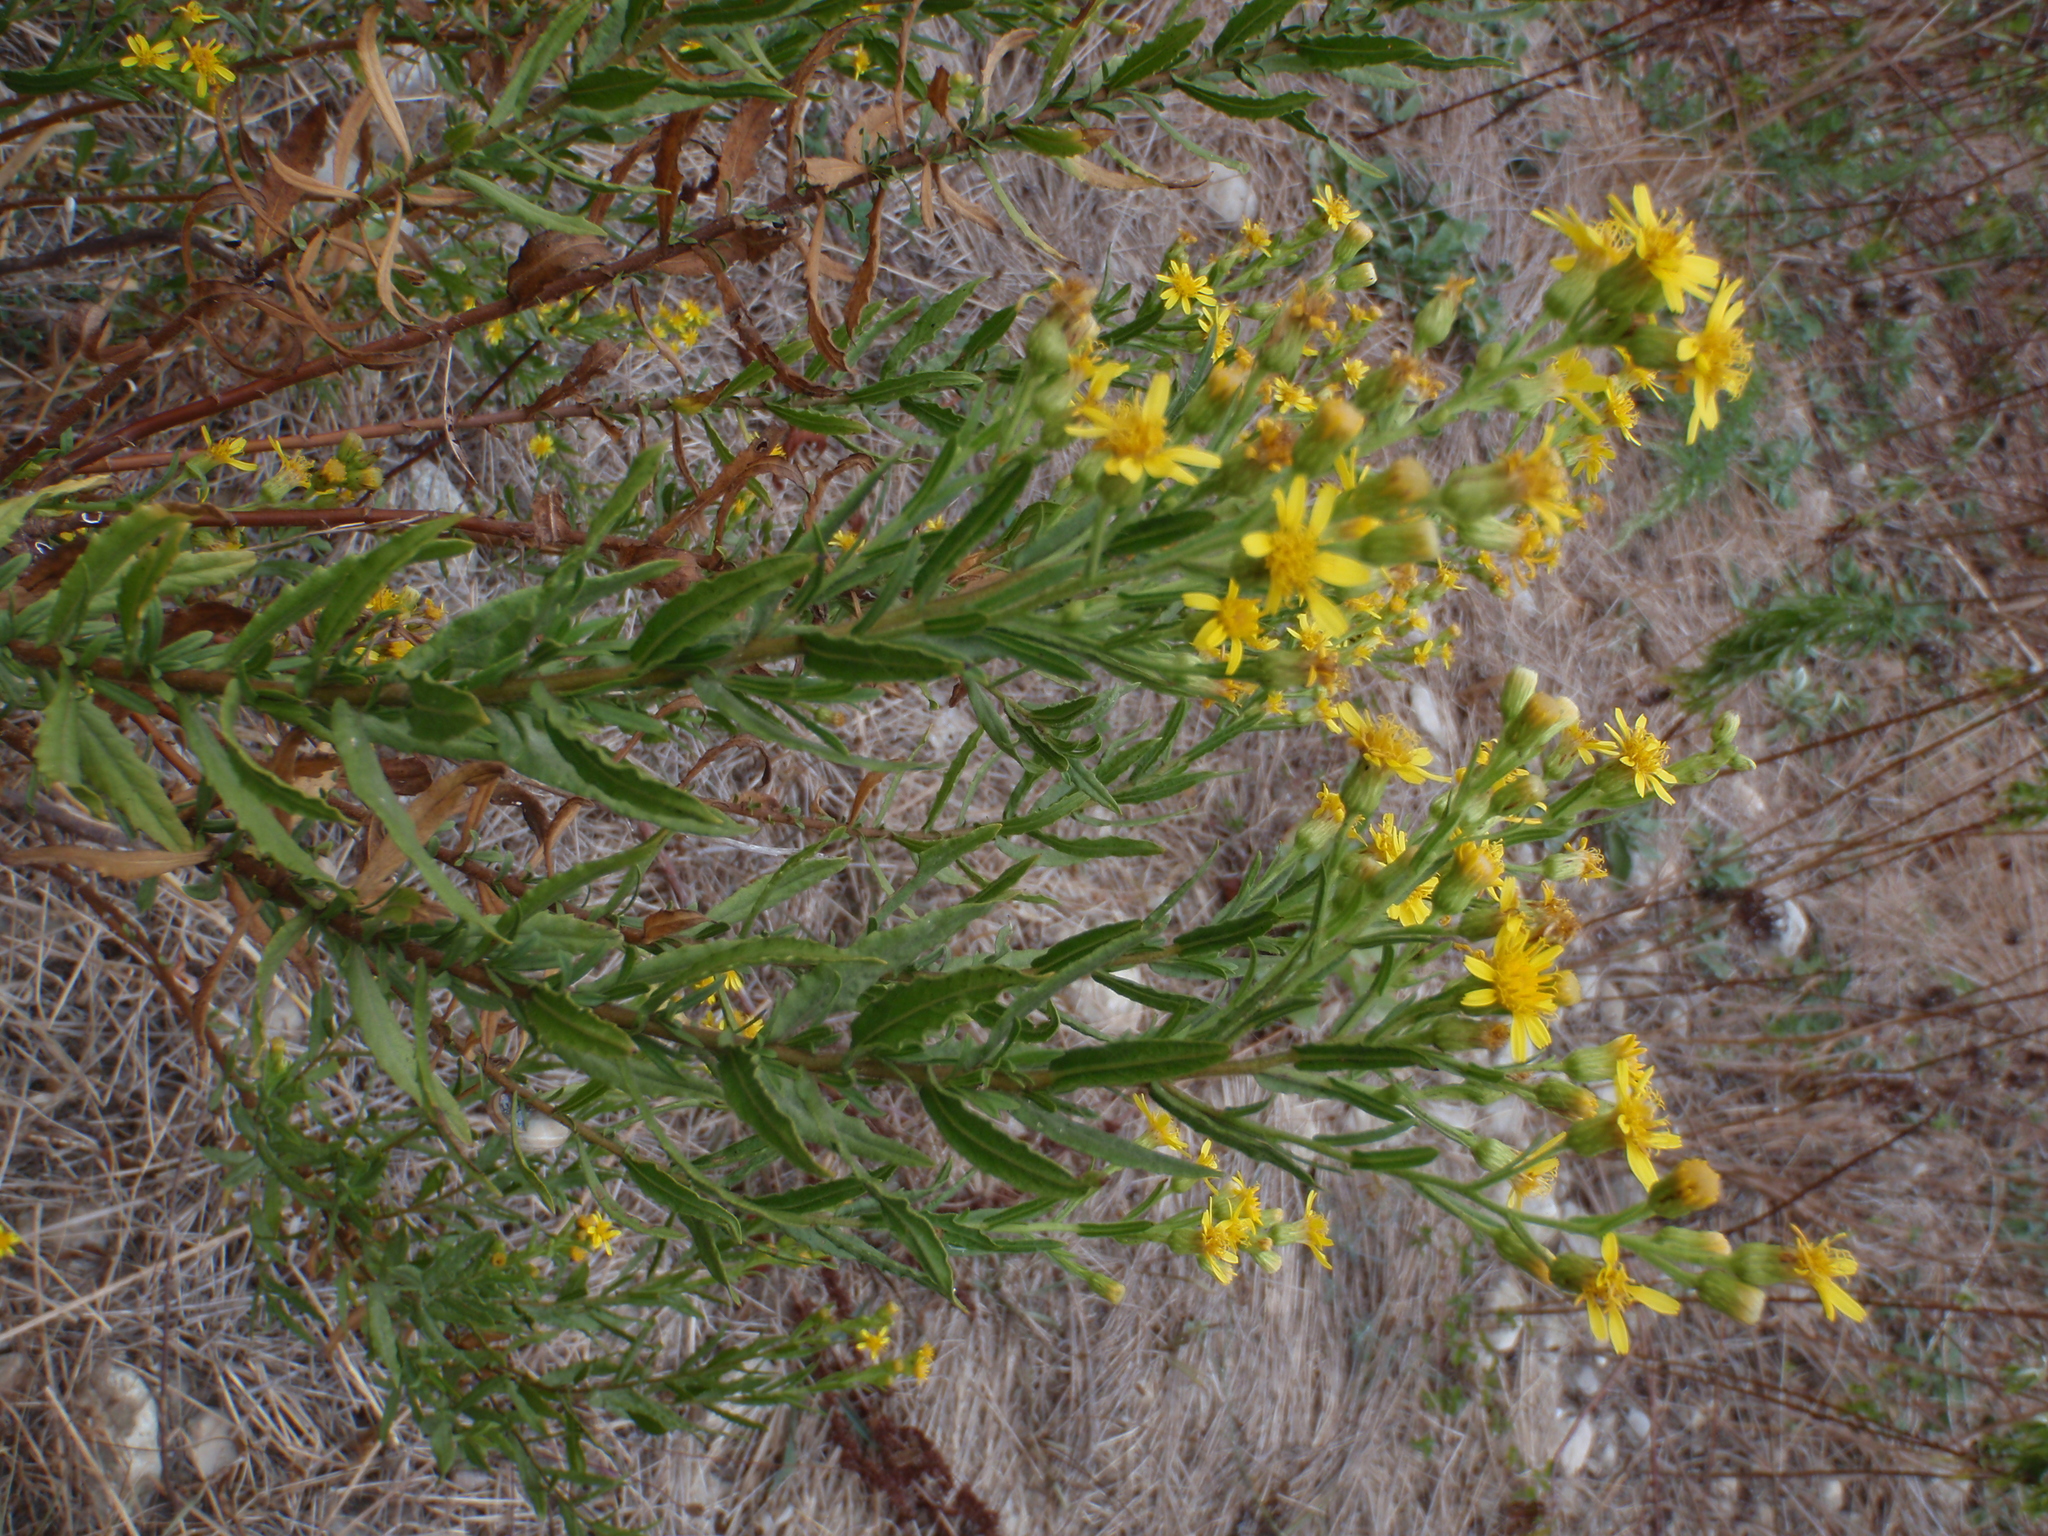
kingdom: Plantae
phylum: Tracheophyta
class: Magnoliopsida
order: Asterales
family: Asteraceae
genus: Dittrichia
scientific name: Dittrichia viscosa
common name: Woody fleabane
